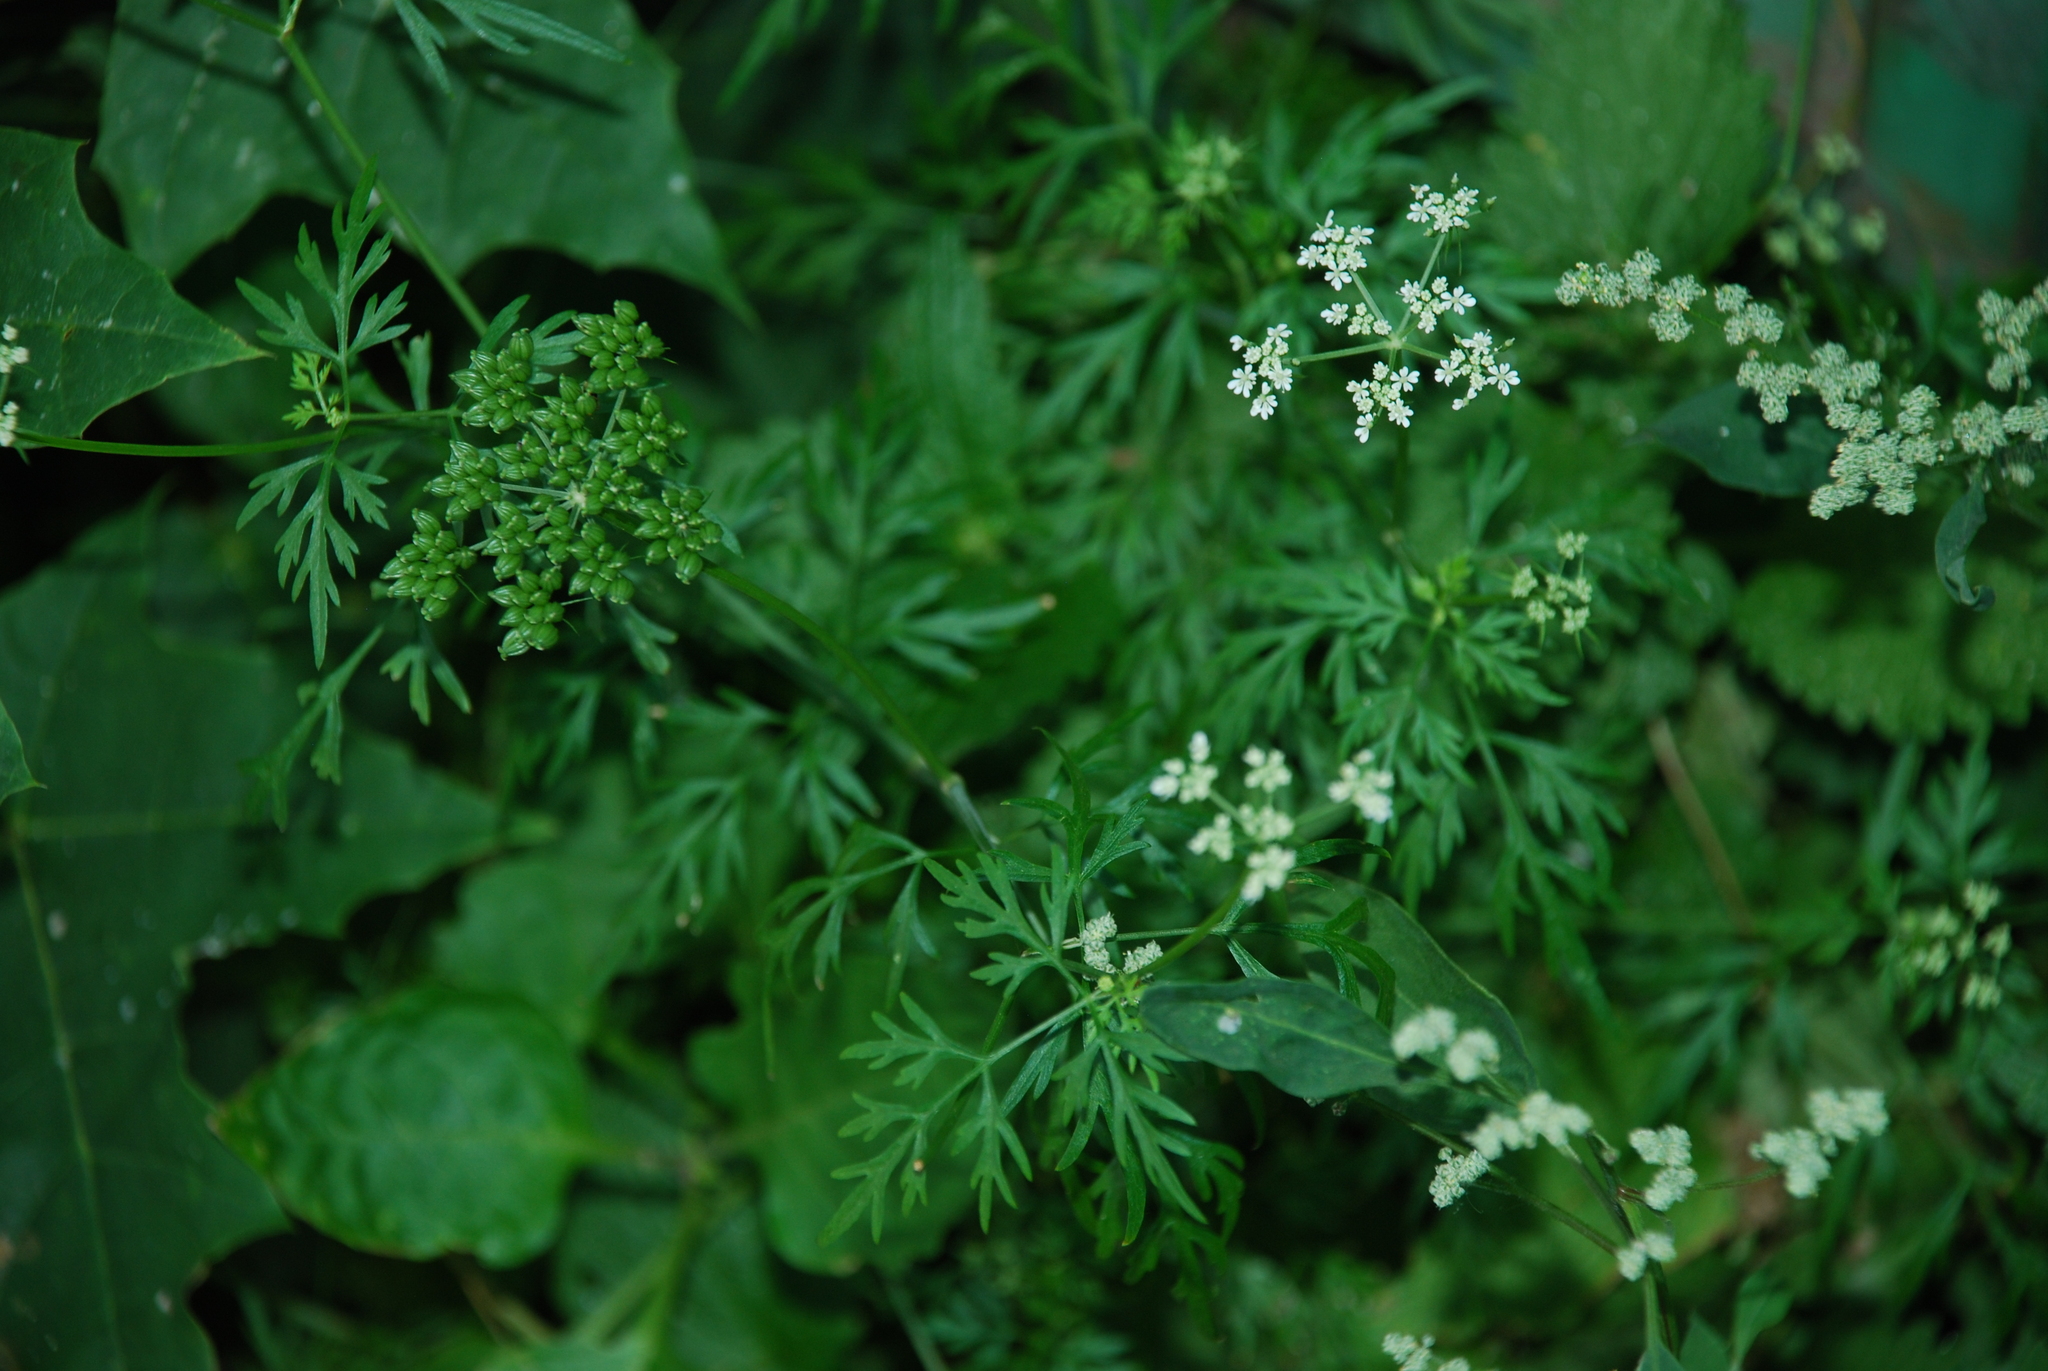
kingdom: Plantae
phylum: Tracheophyta
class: Magnoliopsida
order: Apiales
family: Apiaceae
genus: Aethusa
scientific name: Aethusa cynapium
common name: Fool's parsley
